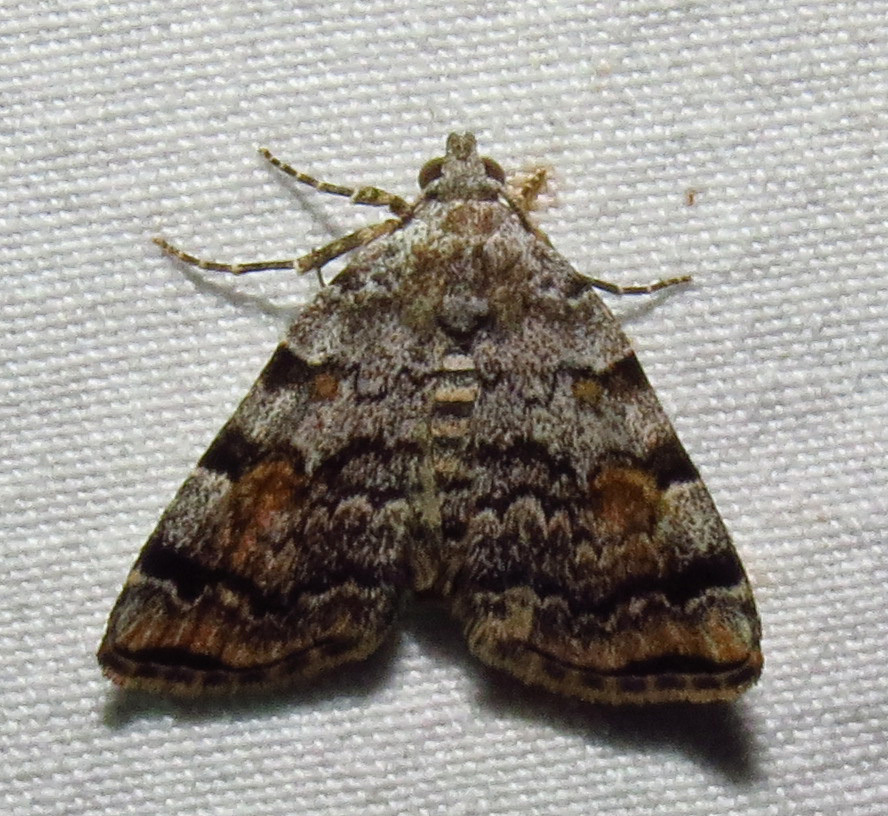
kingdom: Animalia
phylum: Arthropoda
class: Insecta
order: Lepidoptera
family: Erebidae
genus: Idia
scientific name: Idia americalis
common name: American idia moth
